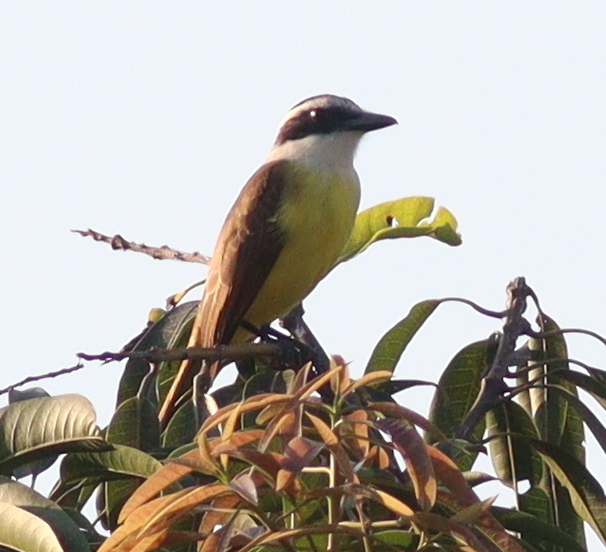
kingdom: Animalia
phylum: Chordata
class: Aves
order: Passeriformes
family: Tyrannidae
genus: Pitangus
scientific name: Pitangus sulphuratus
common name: Great kiskadee
